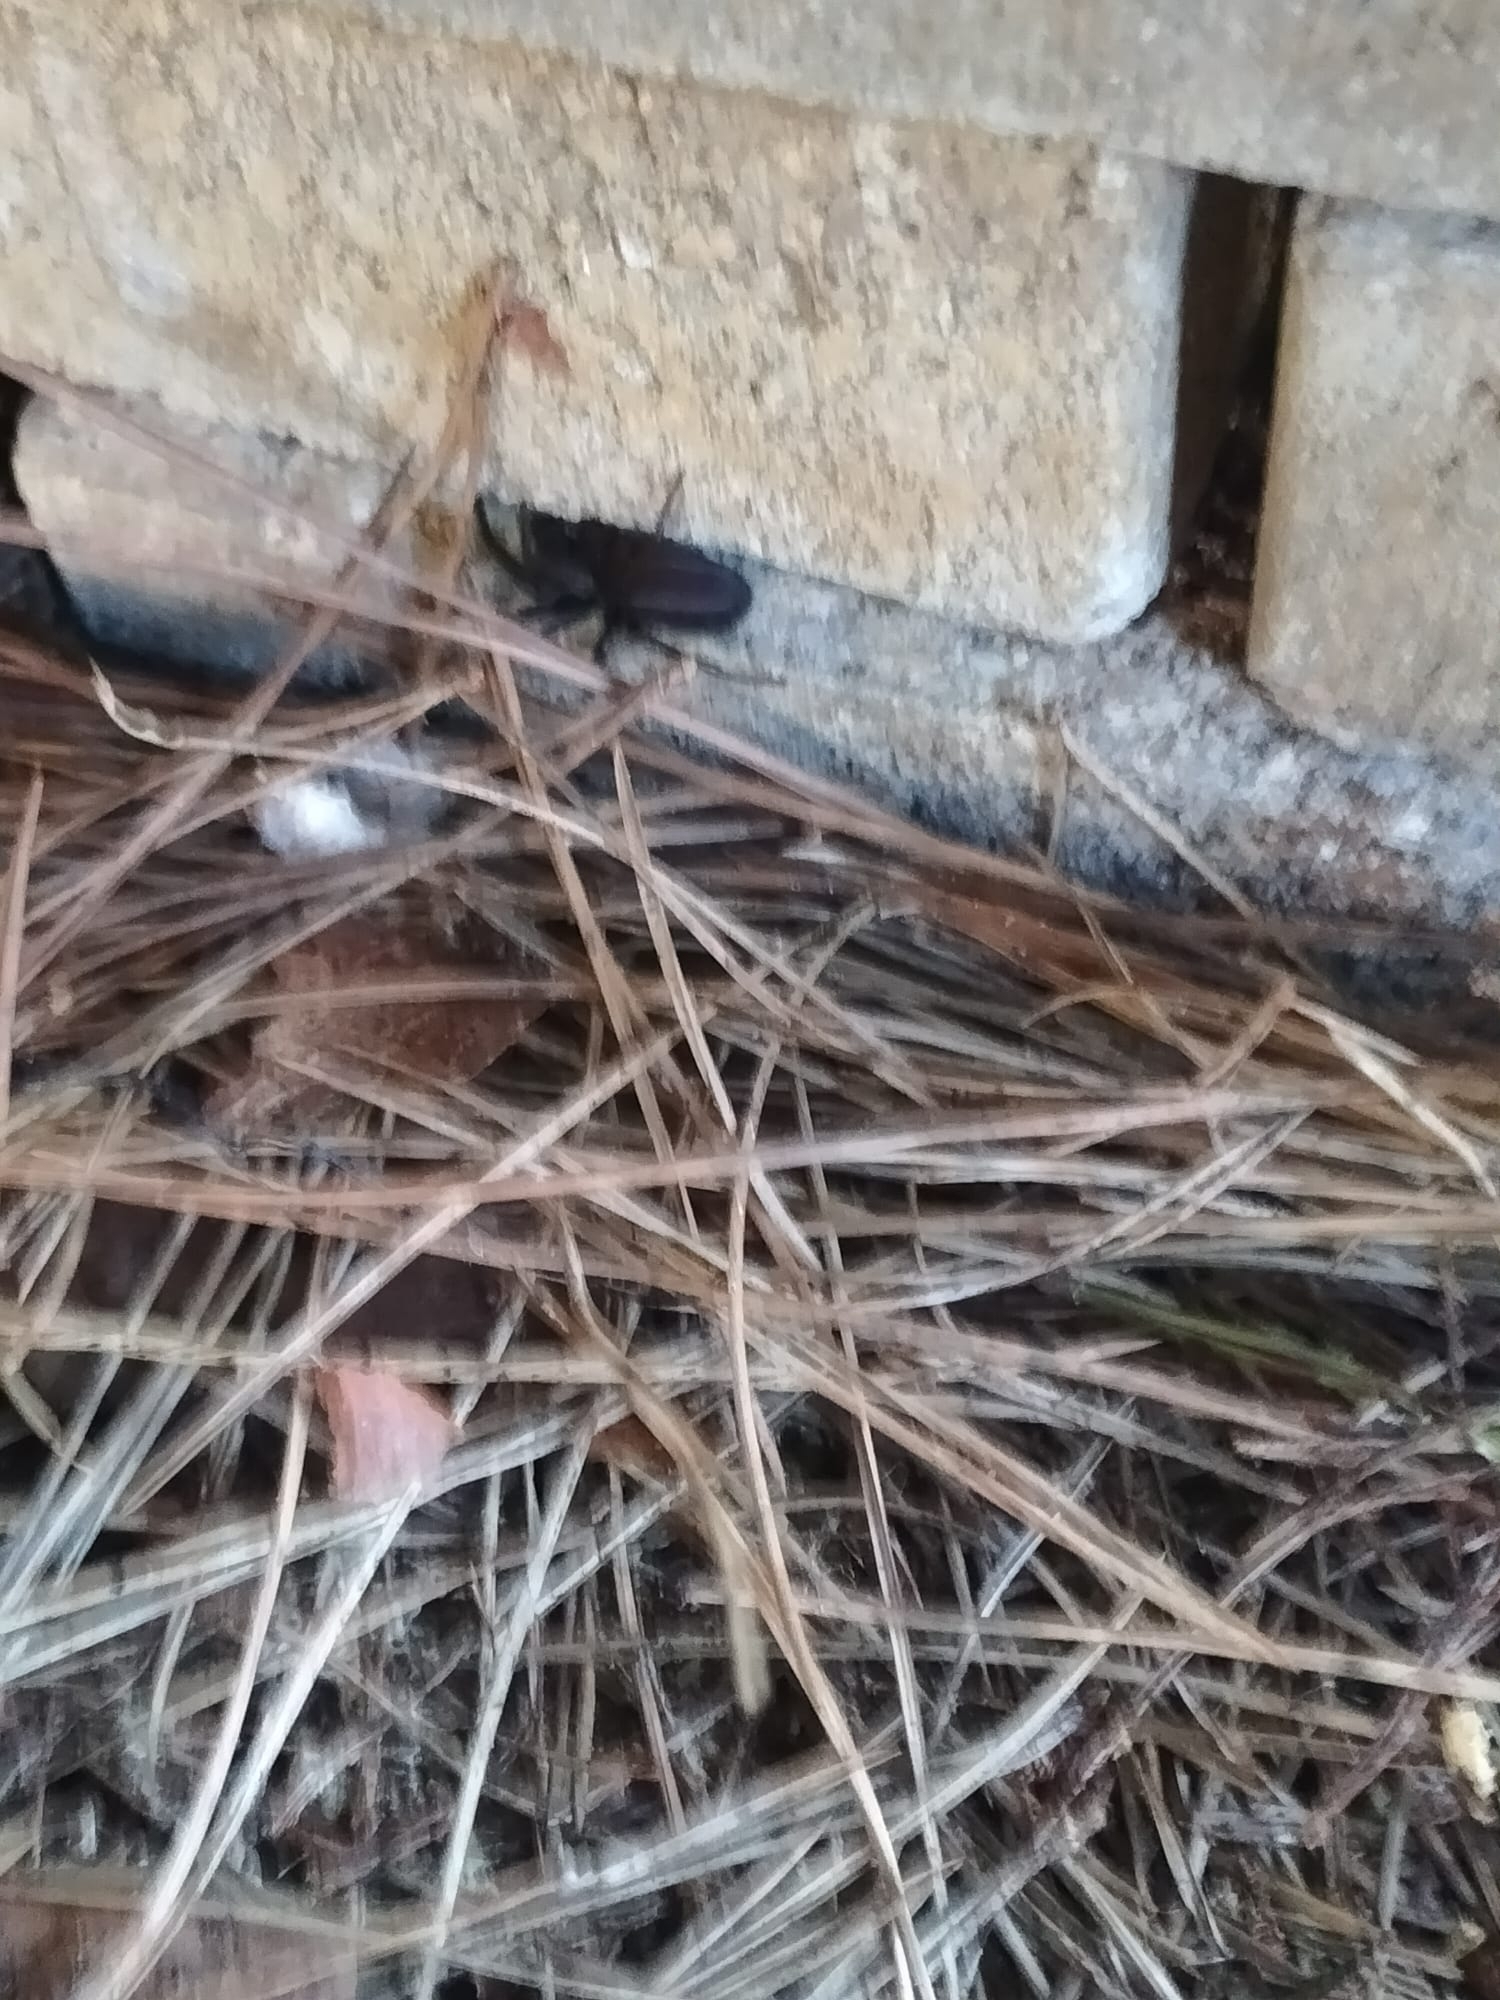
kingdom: Animalia
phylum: Arthropoda
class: Arachnida
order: Araneae
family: Segestriidae
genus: Segestria
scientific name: Segestria florentina
